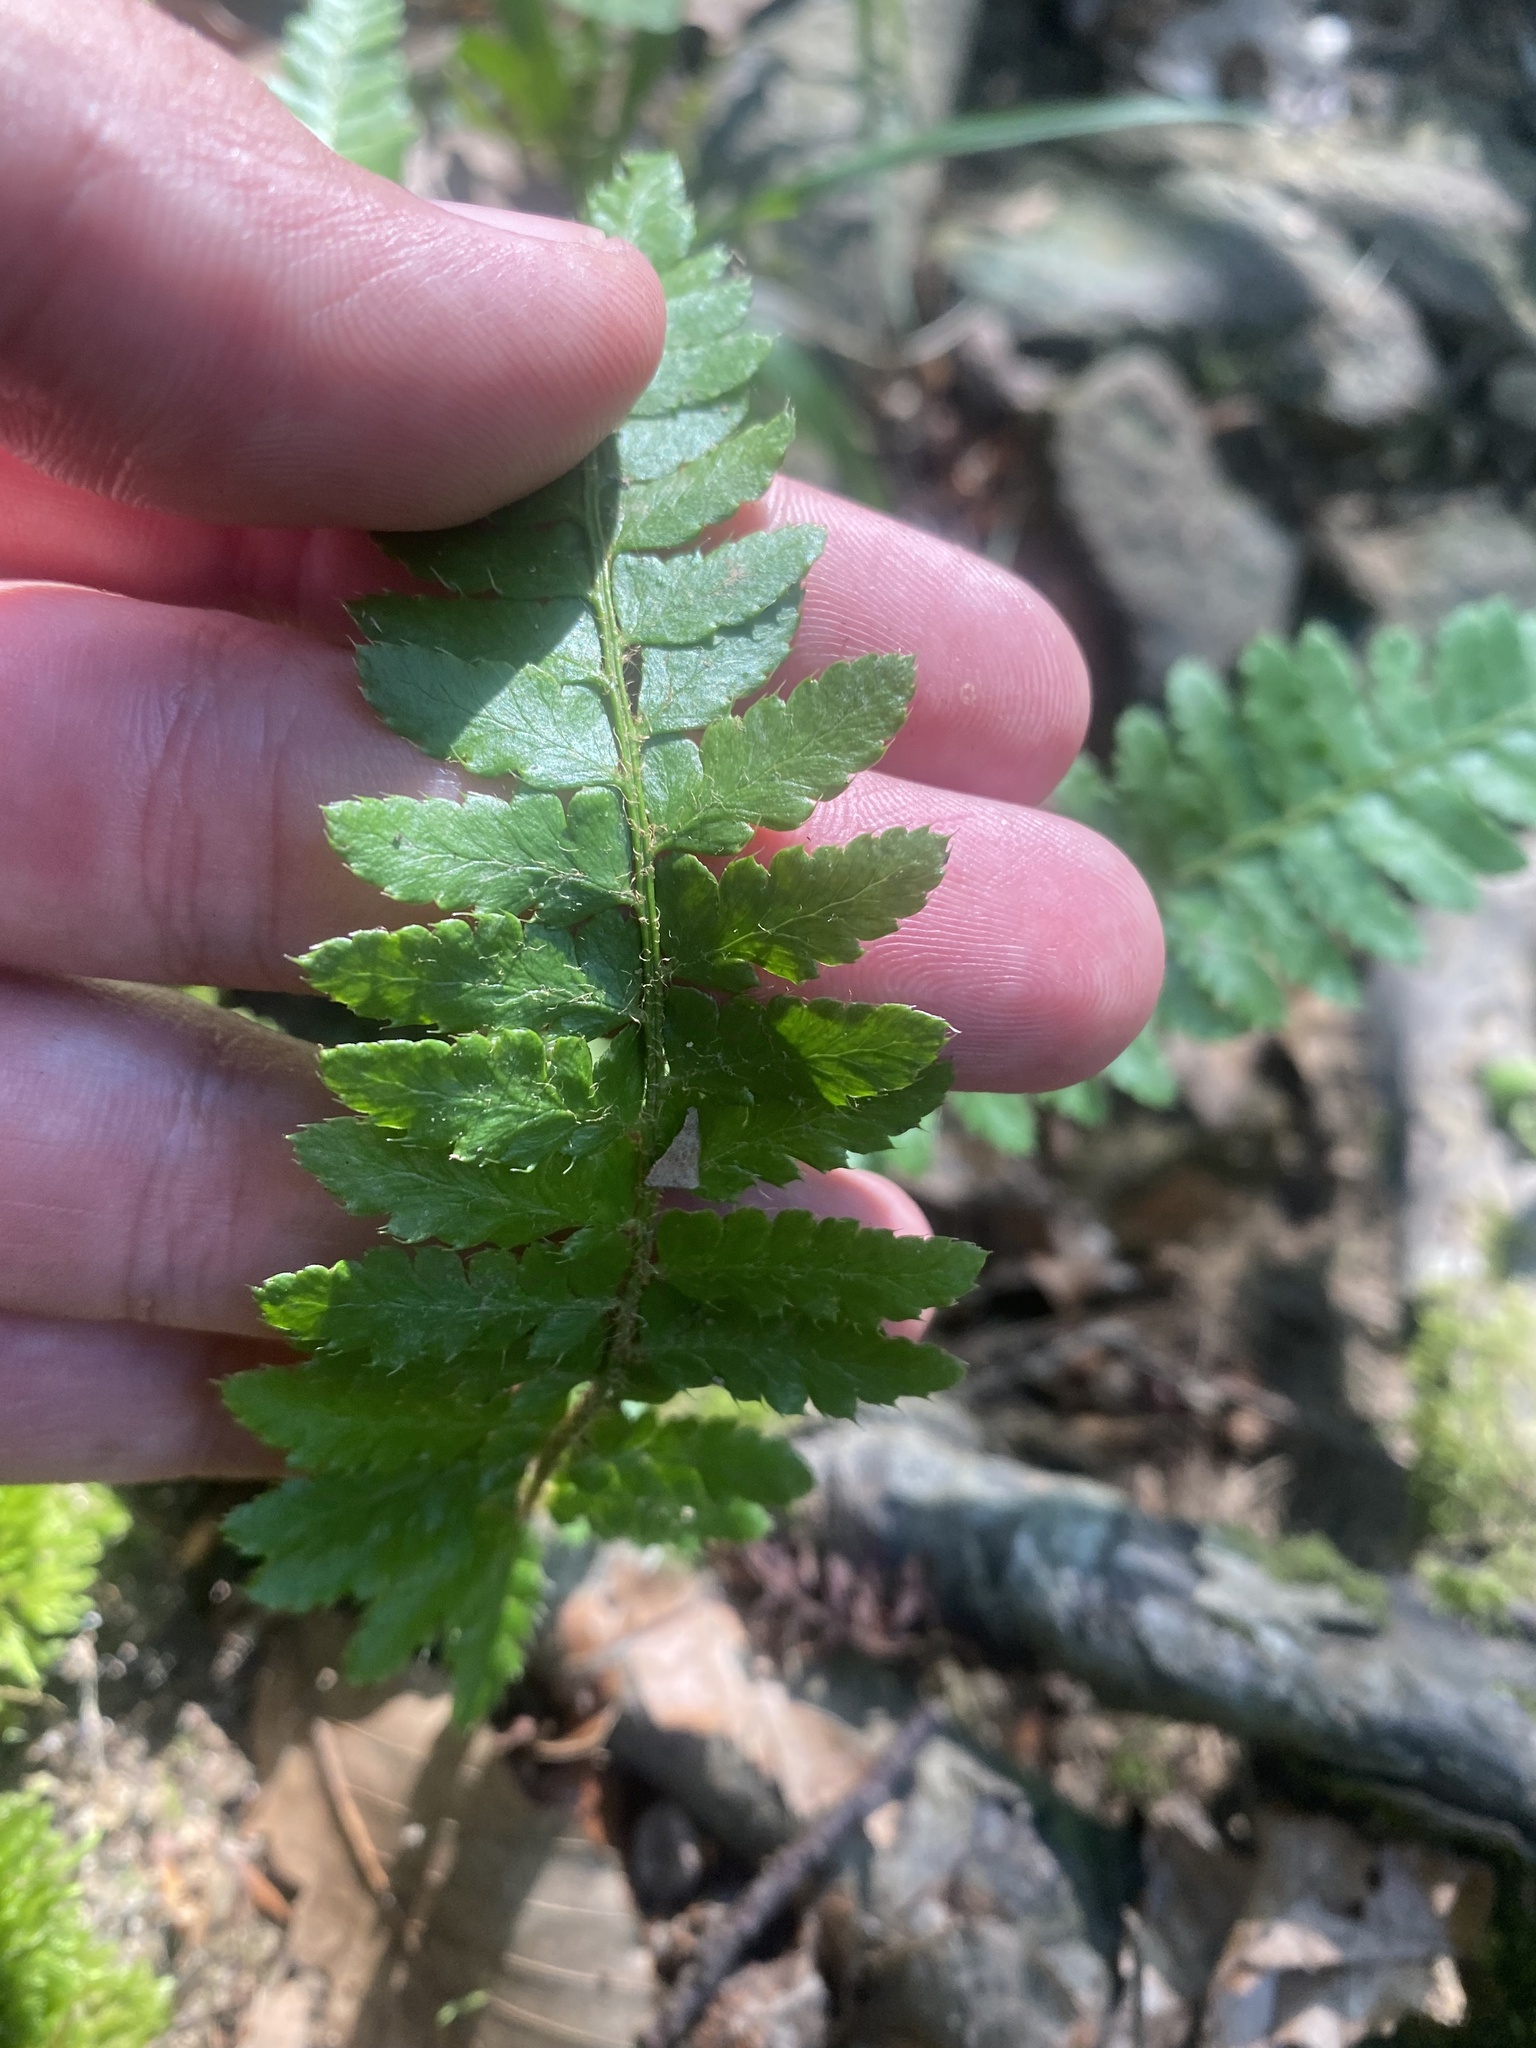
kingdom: Plantae
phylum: Tracheophyta
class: Polypodiopsida
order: Polypodiales
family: Dryopteridaceae
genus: Polystichum
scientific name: Polystichum braunii
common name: Braun's holly fern
